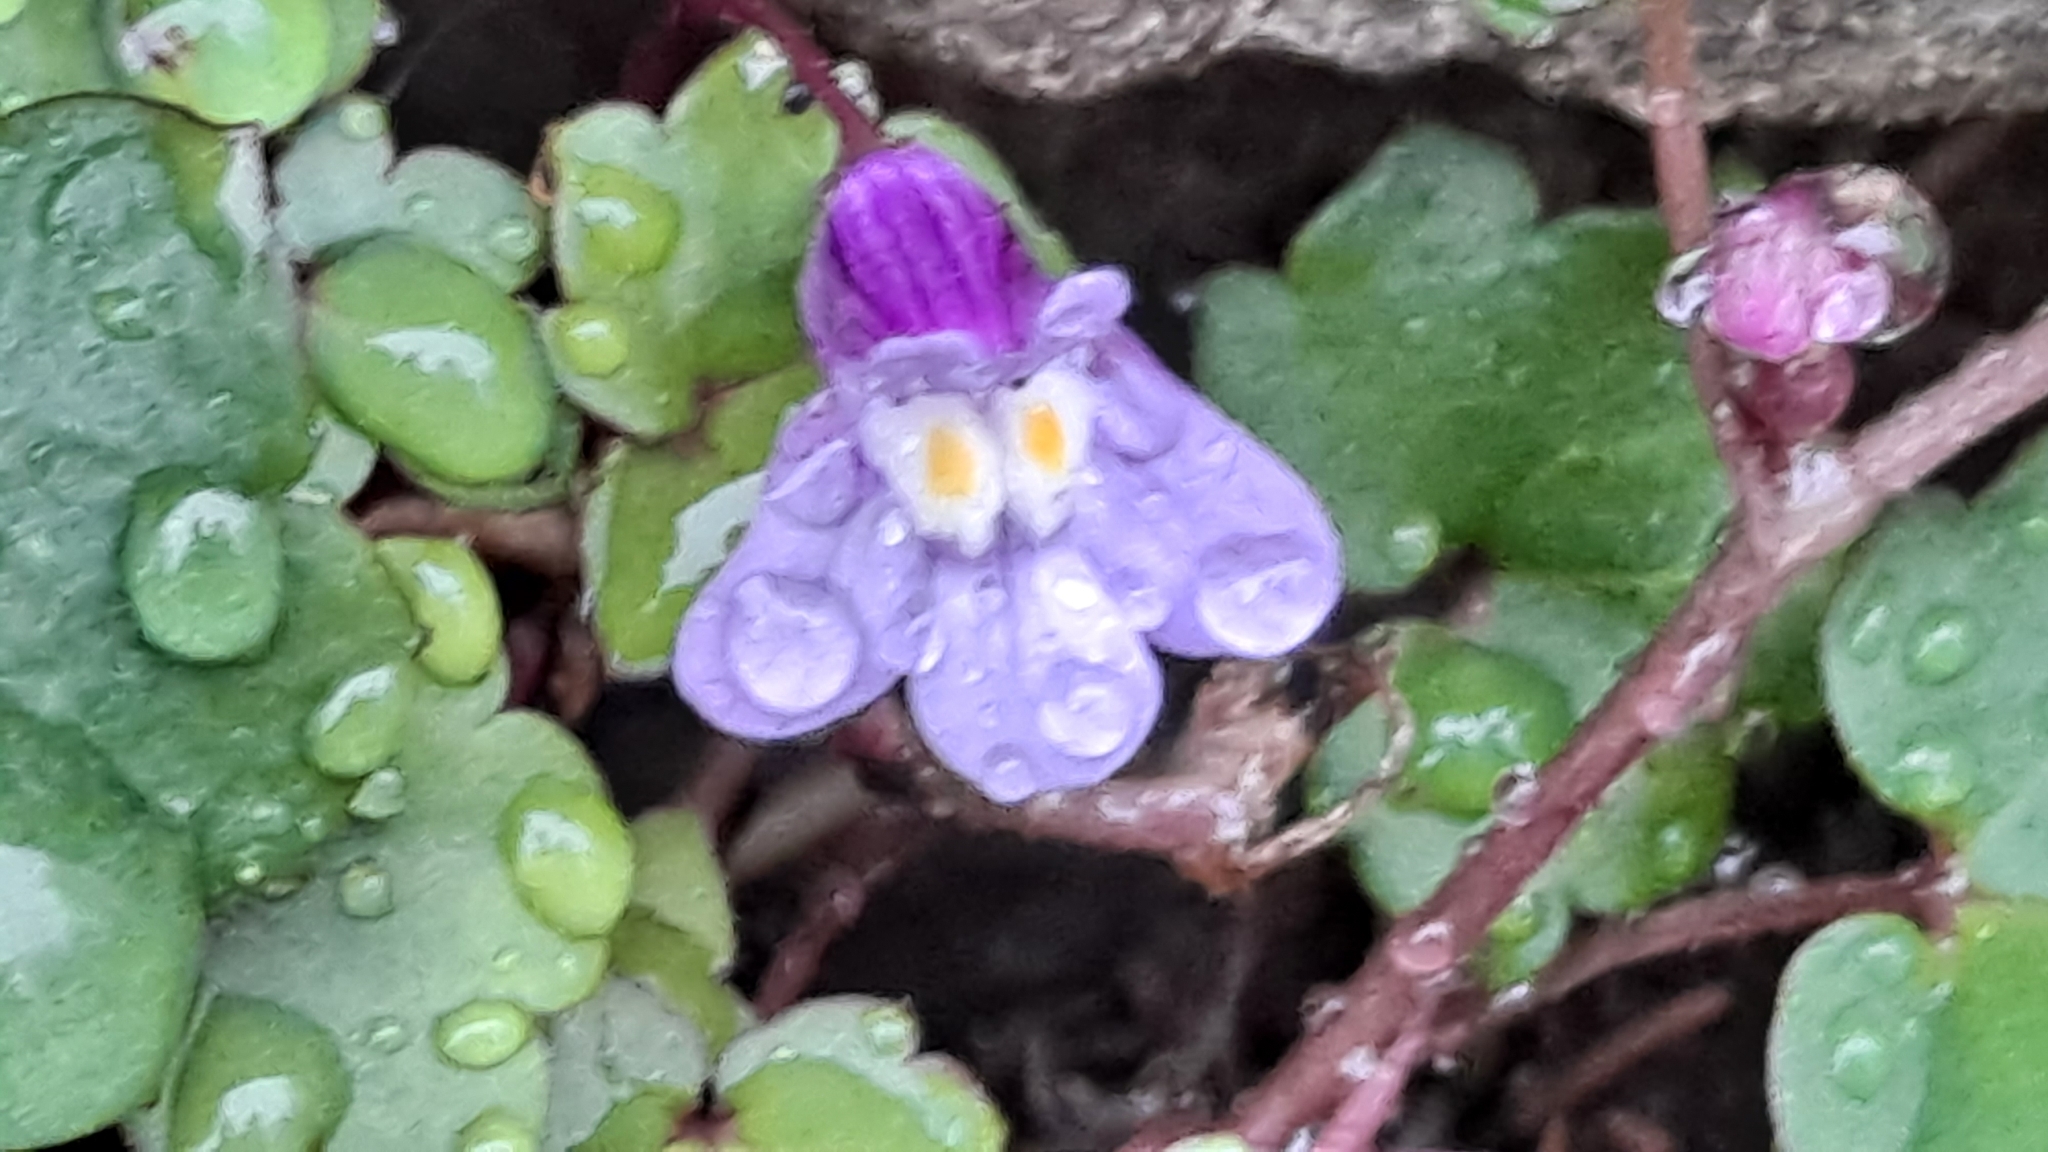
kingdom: Plantae
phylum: Tracheophyta
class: Magnoliopsida
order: Lamiales
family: Plantaginaceae
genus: Cymbalaria
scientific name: Cymbalaria muralis
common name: Ivy-leaved toadflax
